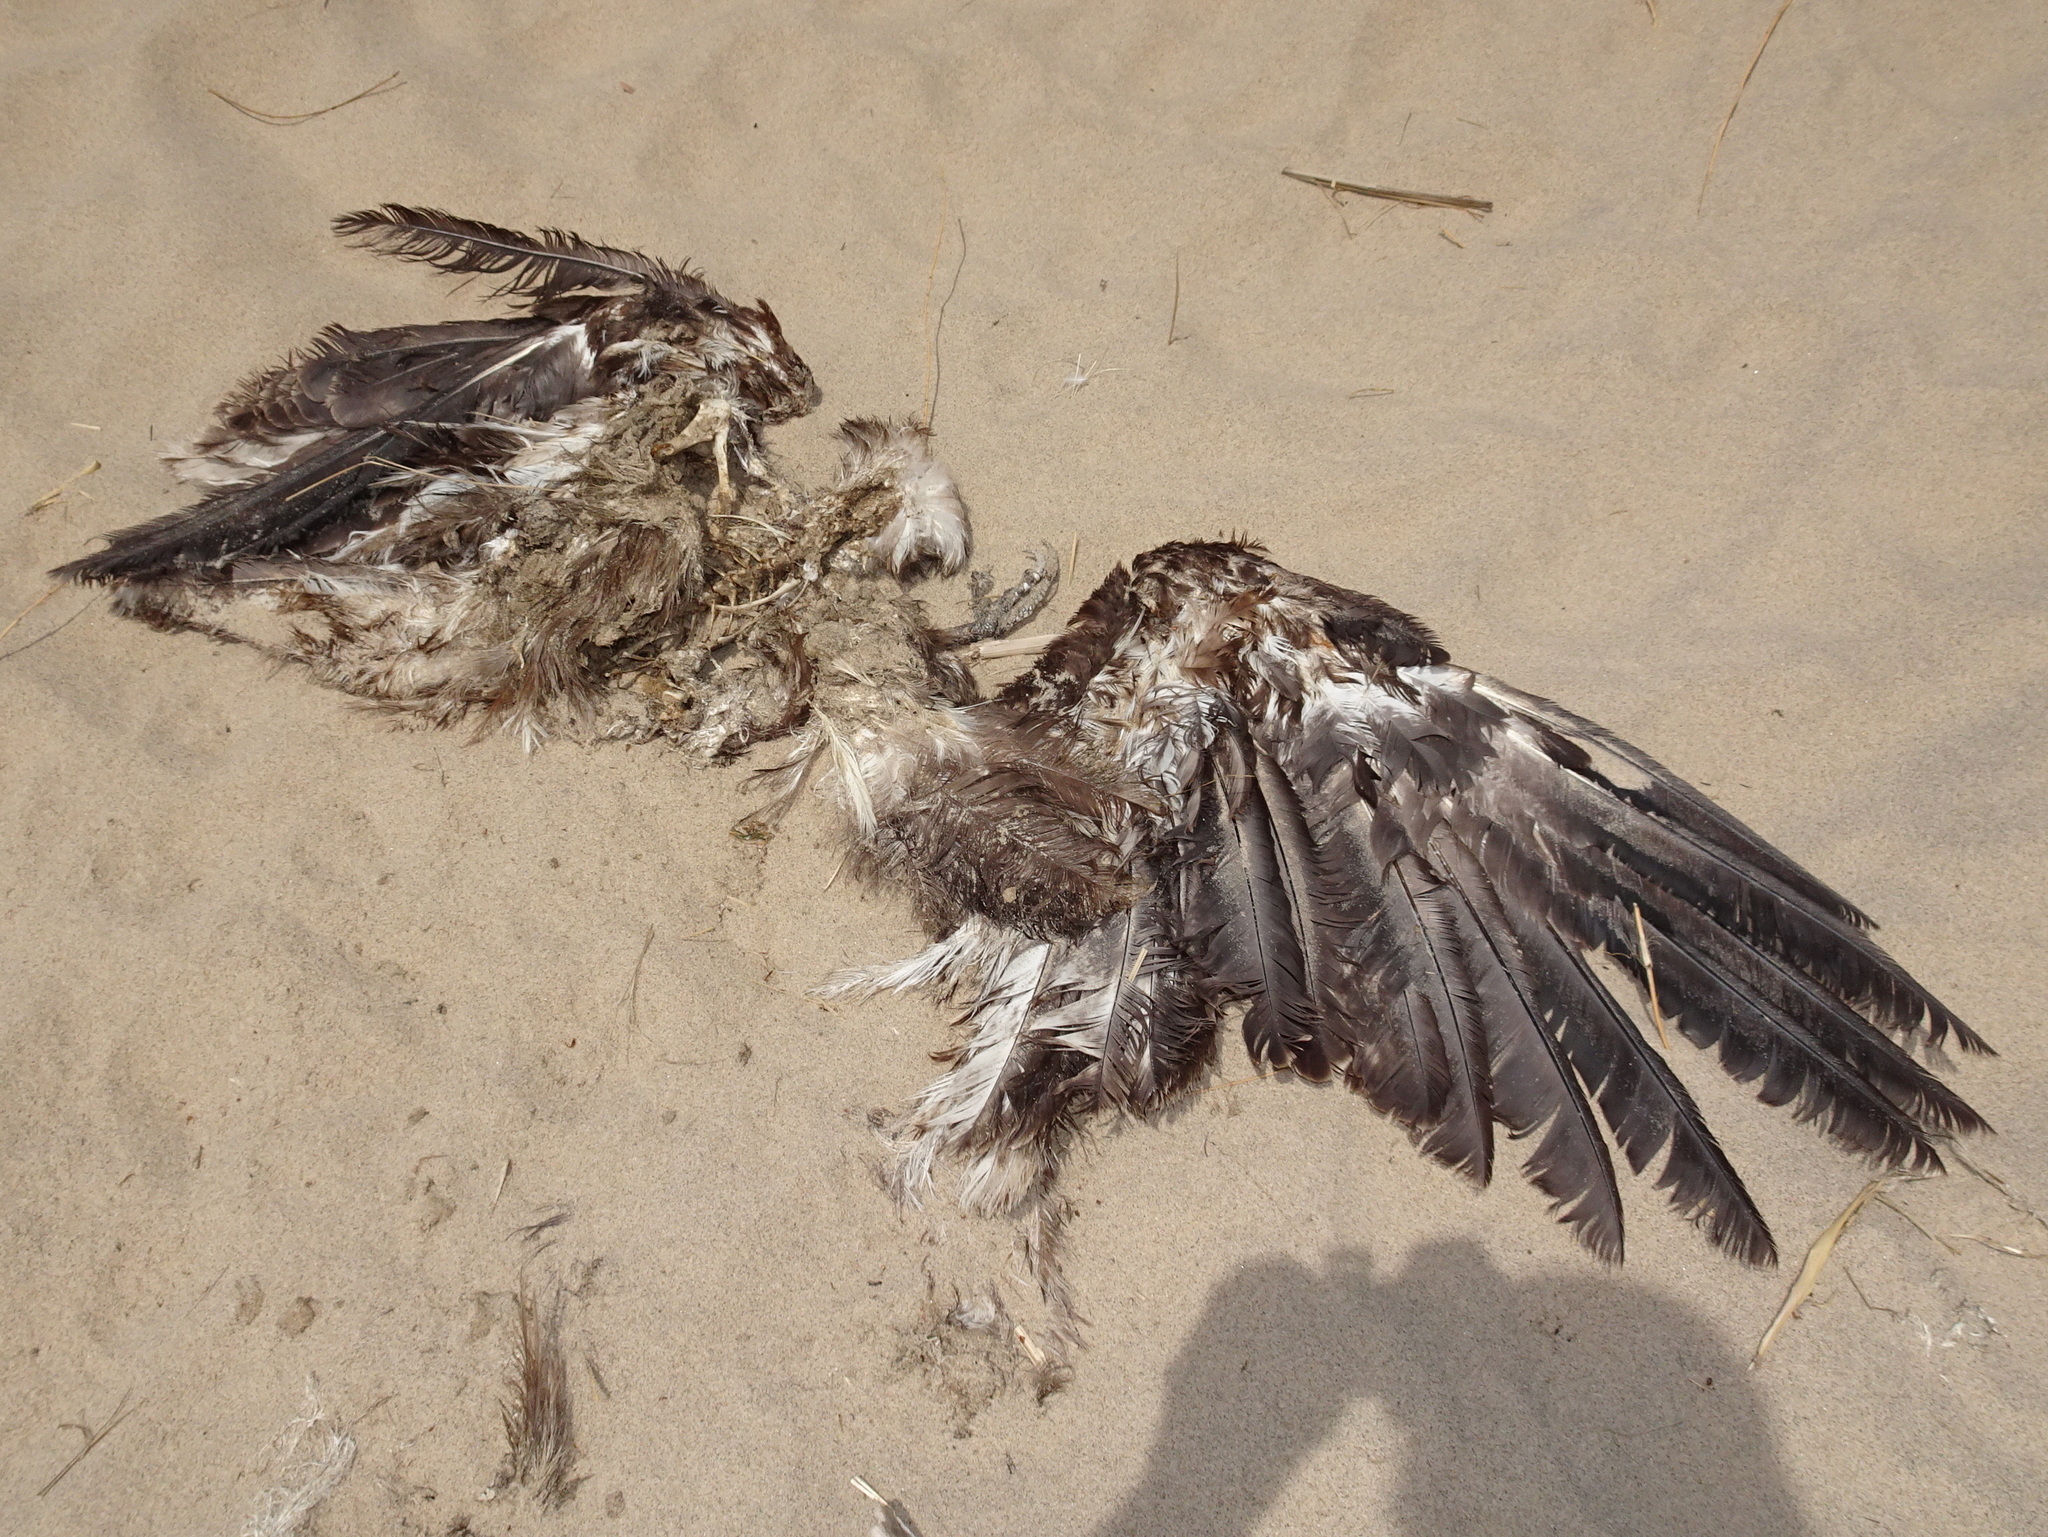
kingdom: Animalia
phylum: Chordata
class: Aves
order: Accipitriformes
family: Accipitridae
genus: Haliaeetus
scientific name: Haliaeetus leucocephalus
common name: Bald eagle
